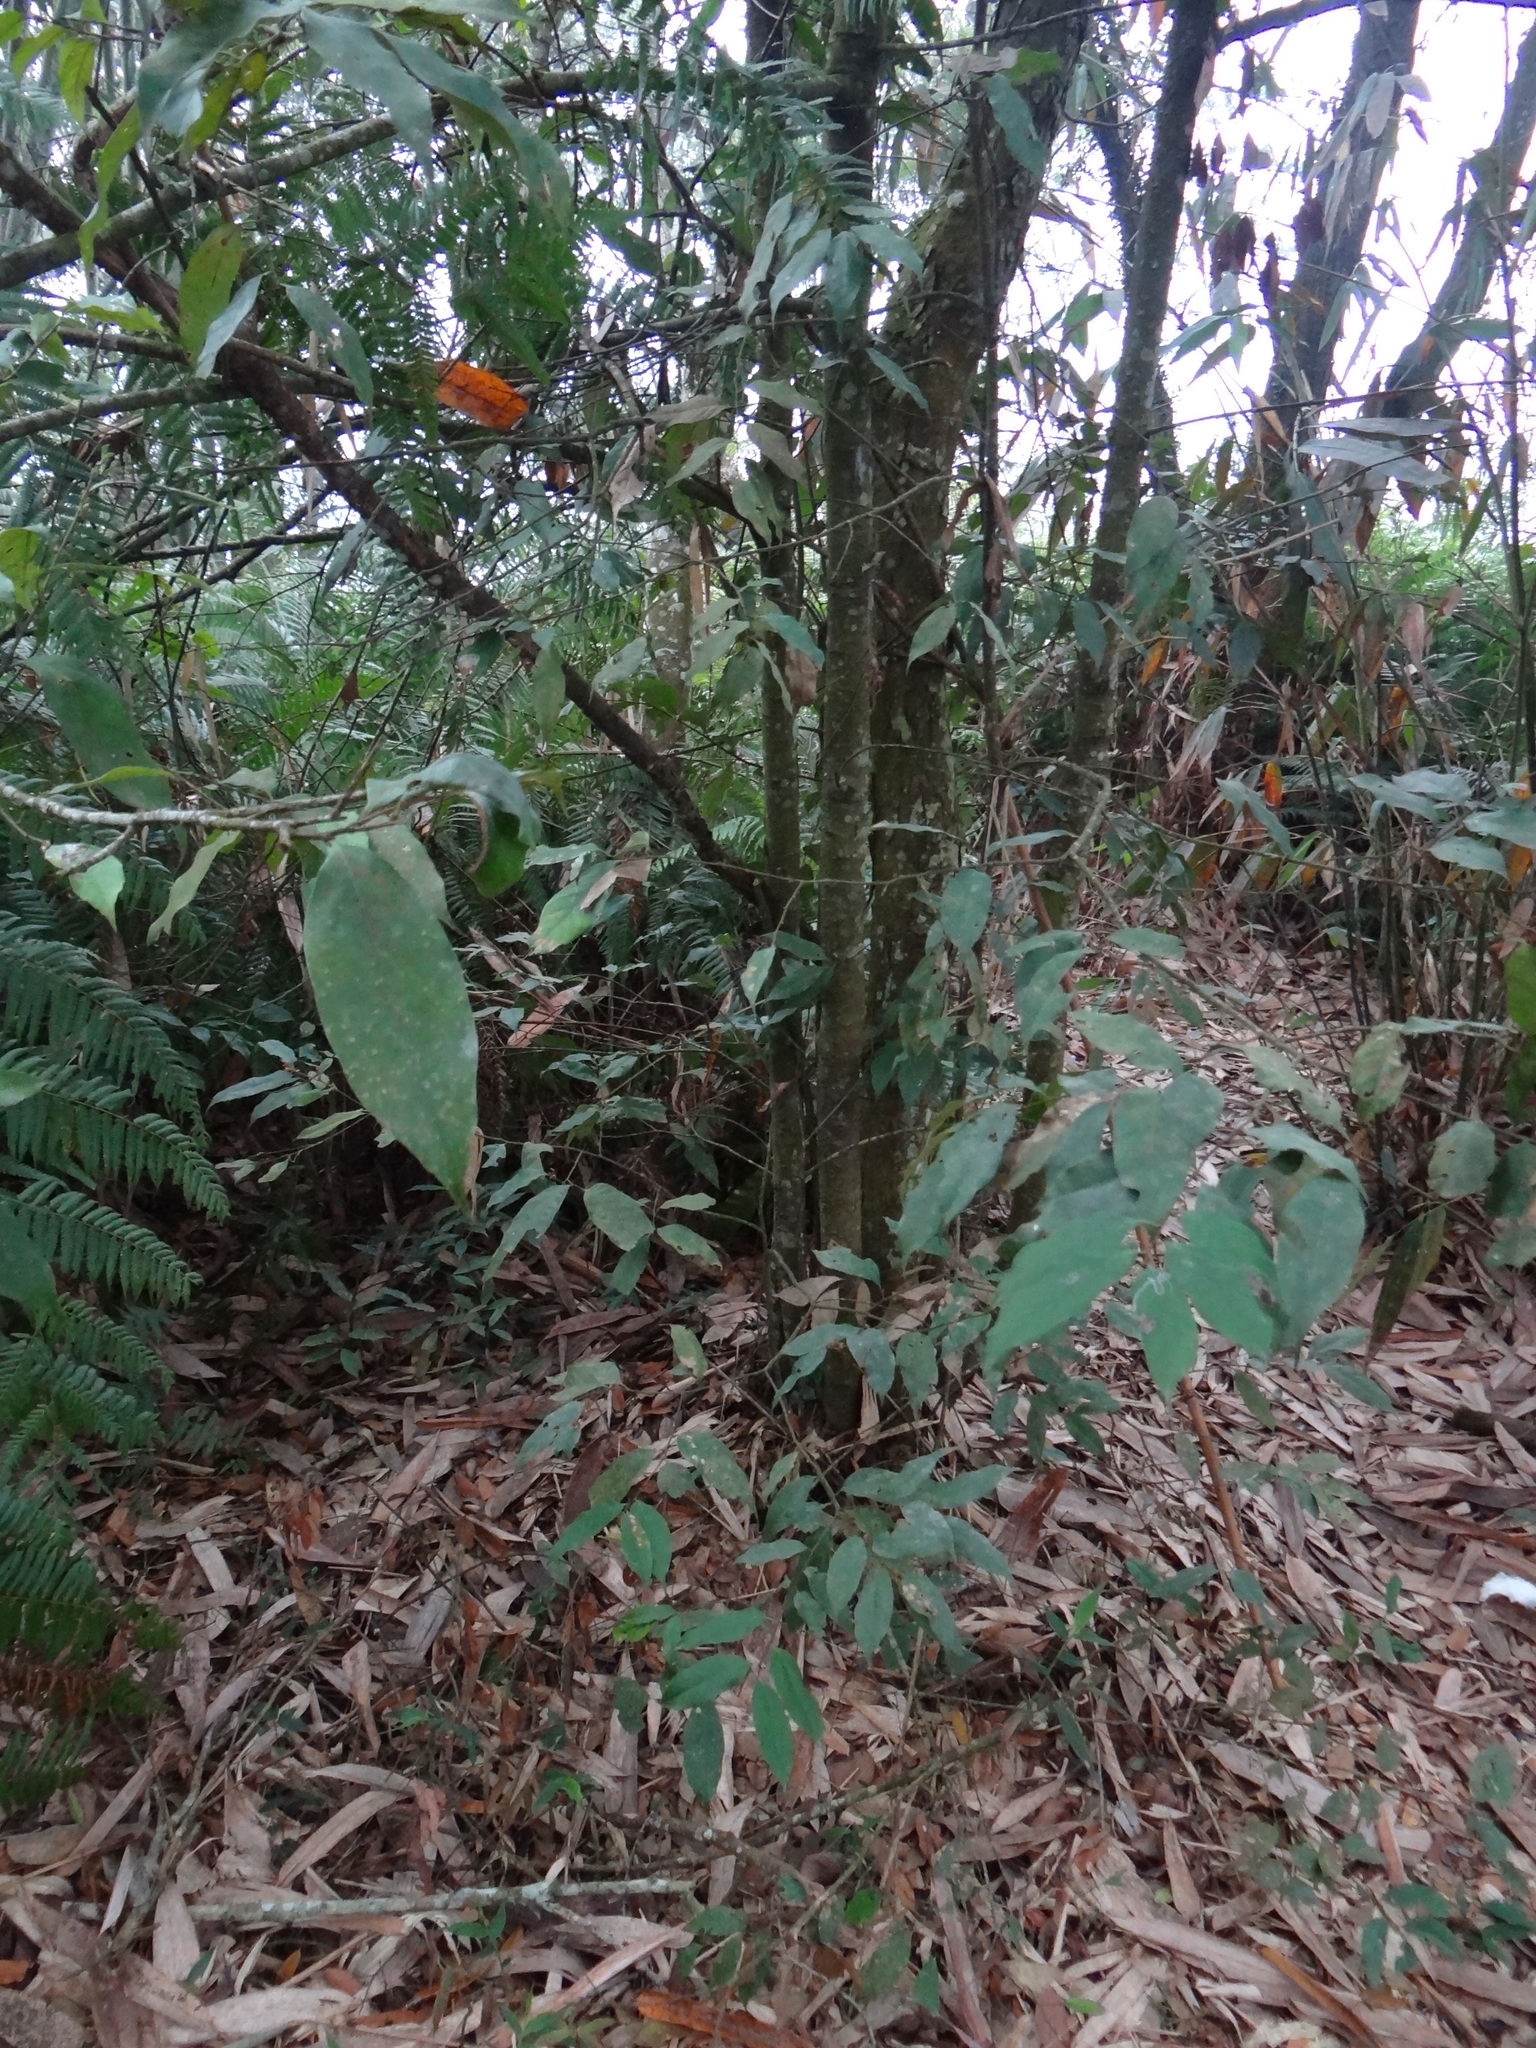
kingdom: Plantae
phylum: Tracheophyta
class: Magnoliopsida
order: Fagales
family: Fagaceae
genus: Castanopsis
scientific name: Castanopsis kawakamii
